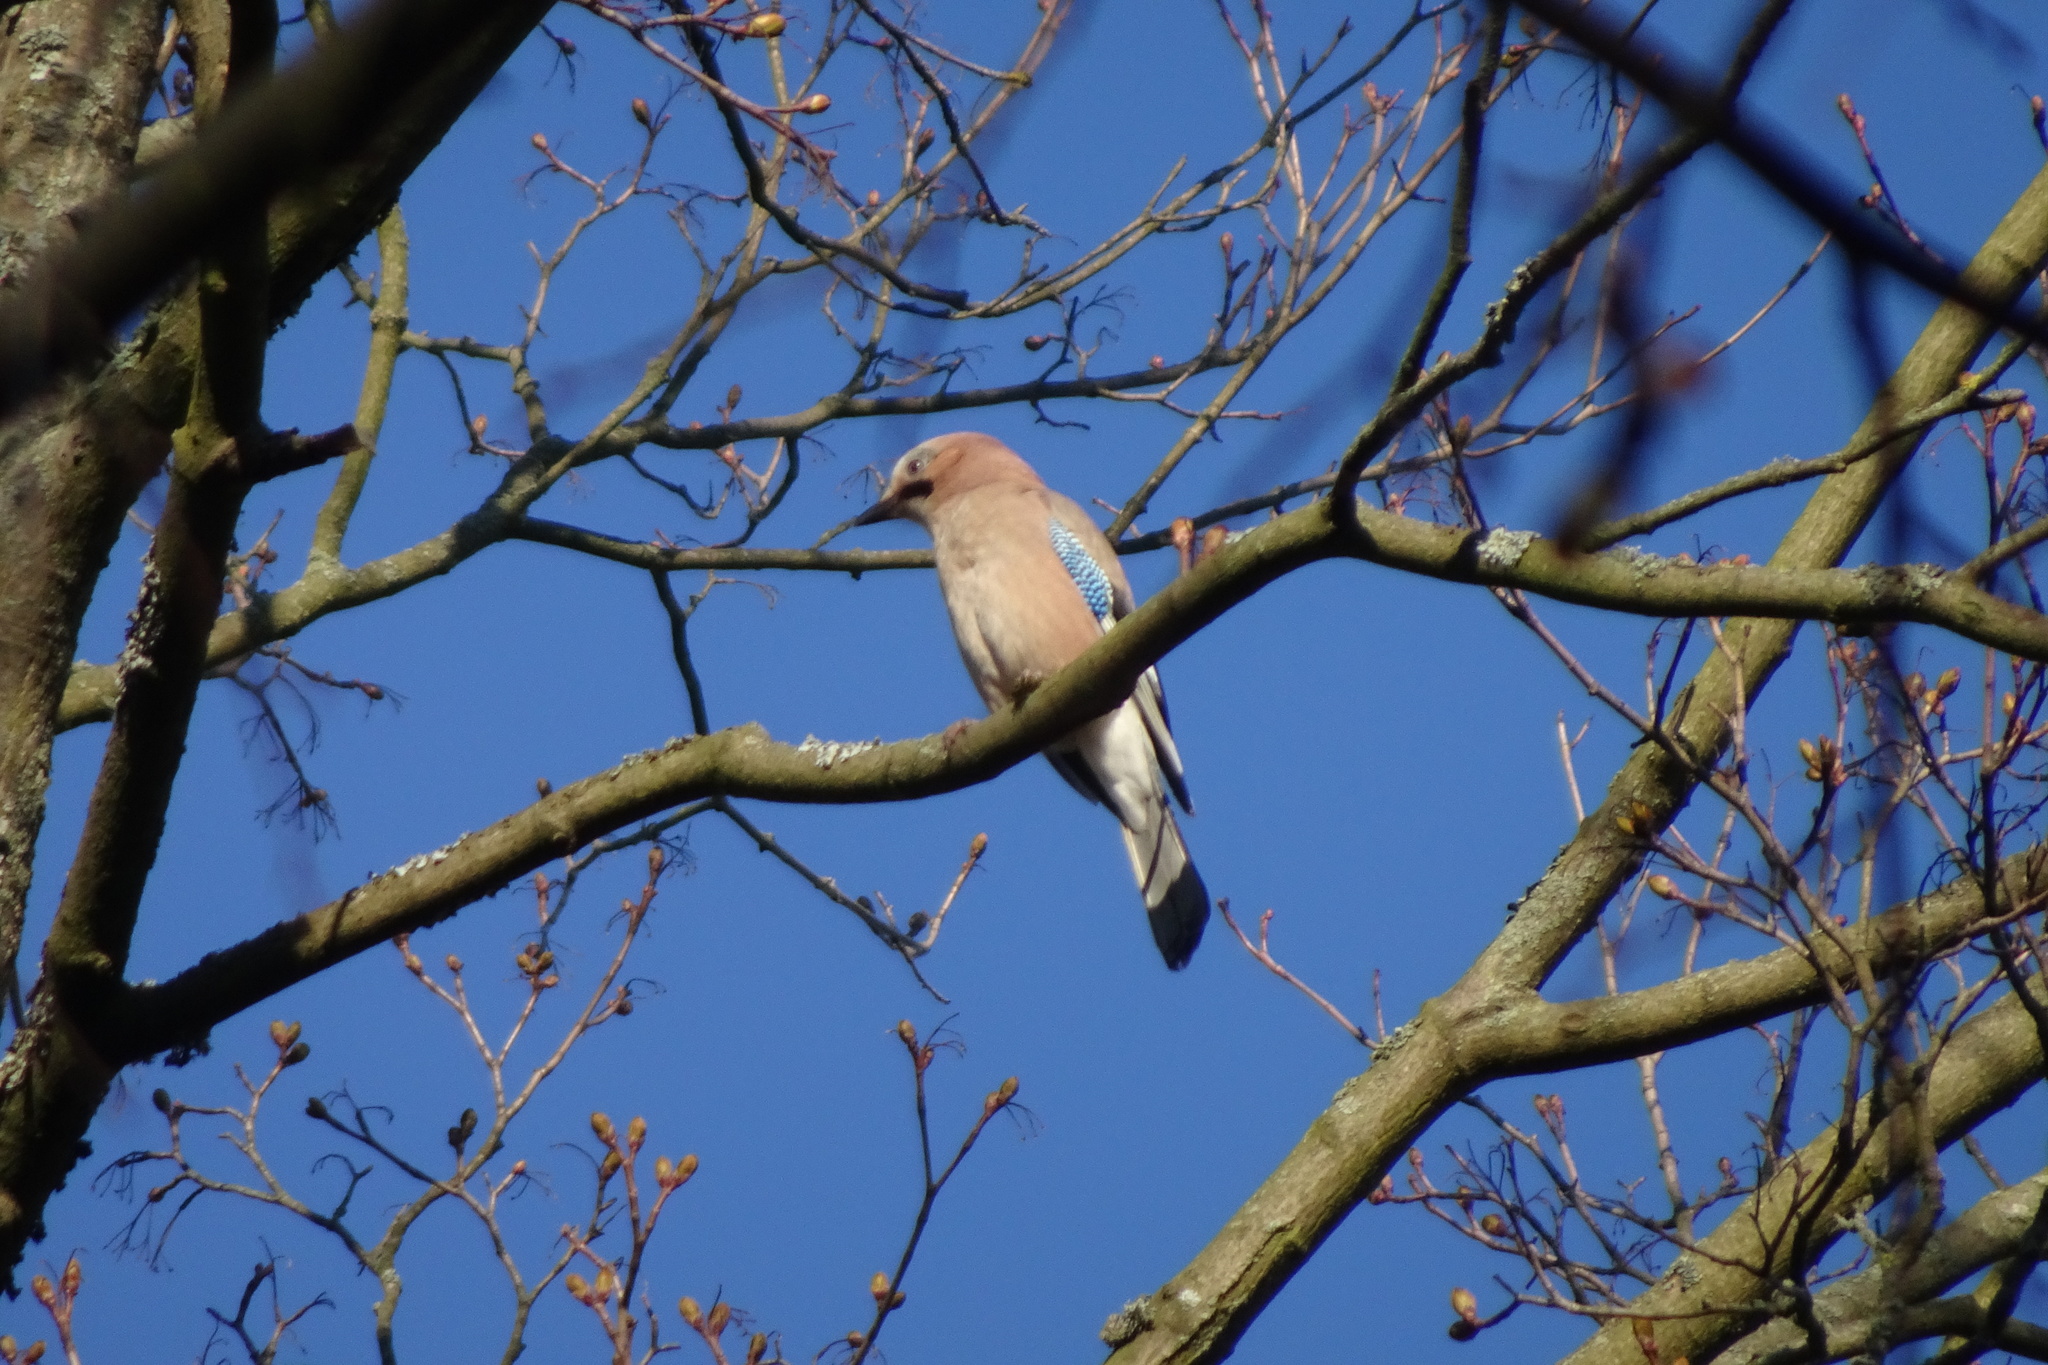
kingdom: Animalia
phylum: Chordata
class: Aves
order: Passeriformes
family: Corvidae
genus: Garrulus
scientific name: Garrulus glandarius
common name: Eurasian jay
